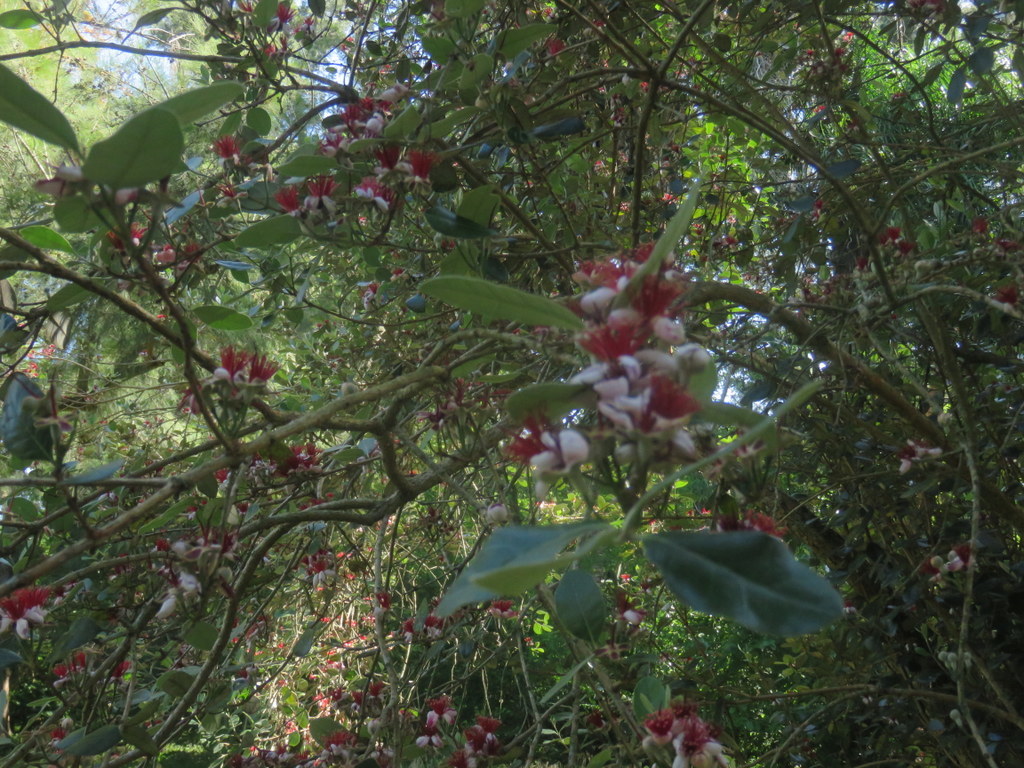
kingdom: Plantae
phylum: Tracheophyta
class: Magnoliopsida
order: Myrtales
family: Myrtaceae
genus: Feijoa
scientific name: Feijoa sellowiana
